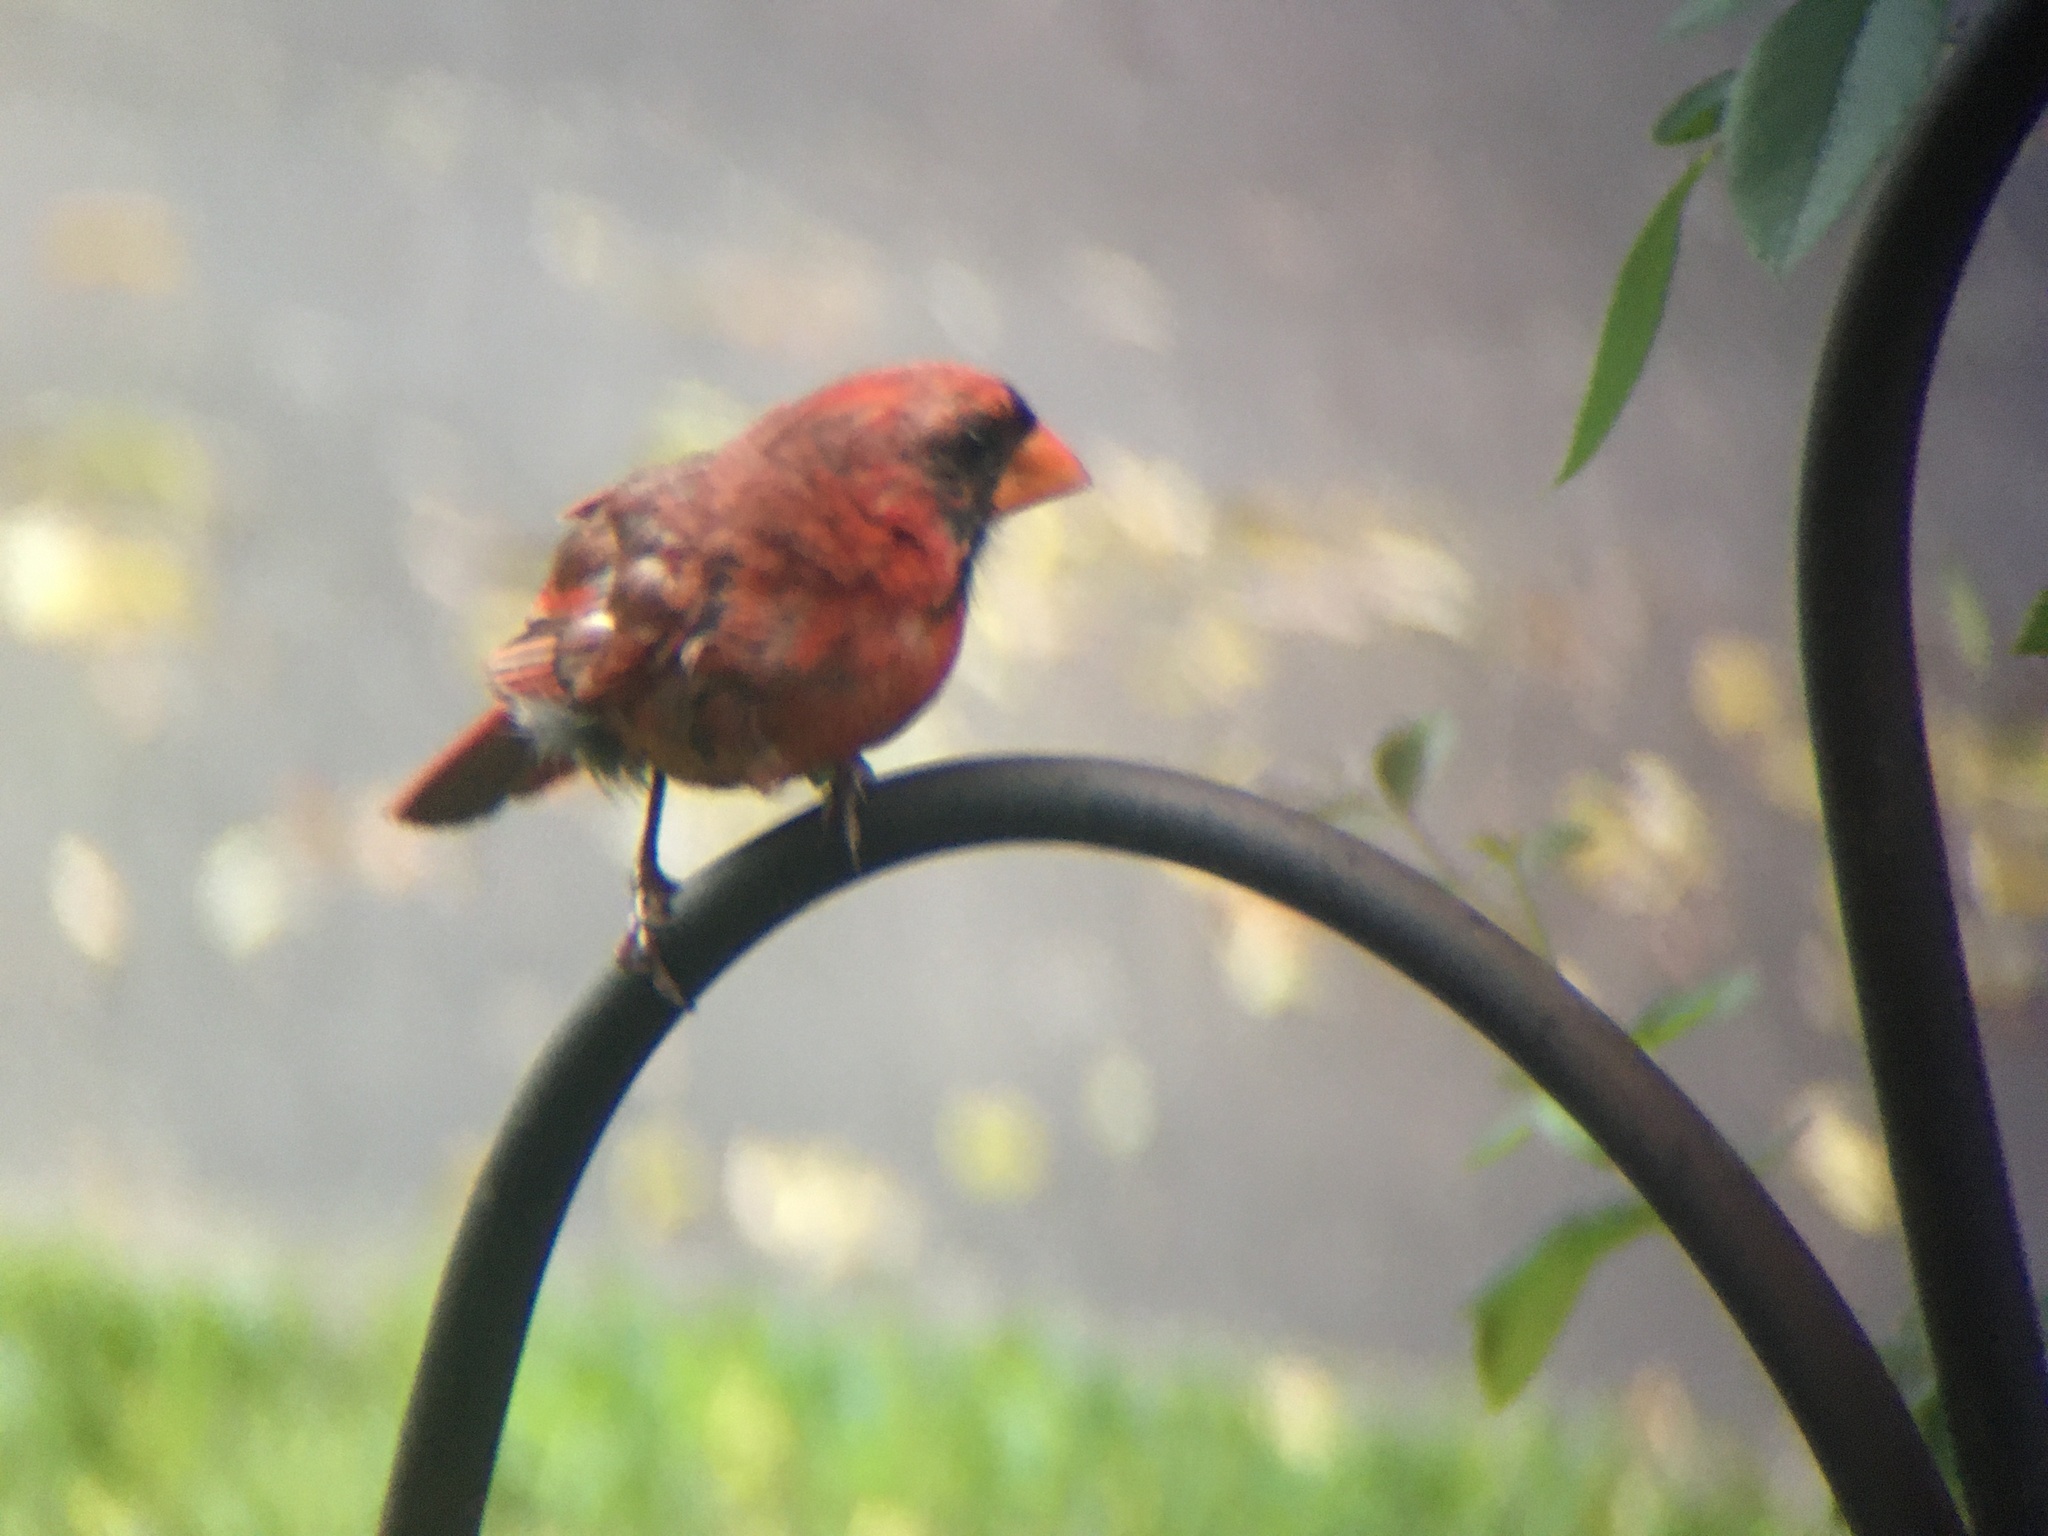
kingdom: Animalia
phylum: Chordata
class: Aves
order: Passeriformes
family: Cardinalidae
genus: Cardinalis
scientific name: Cardinalis cardinalis
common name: Northern cardinal
